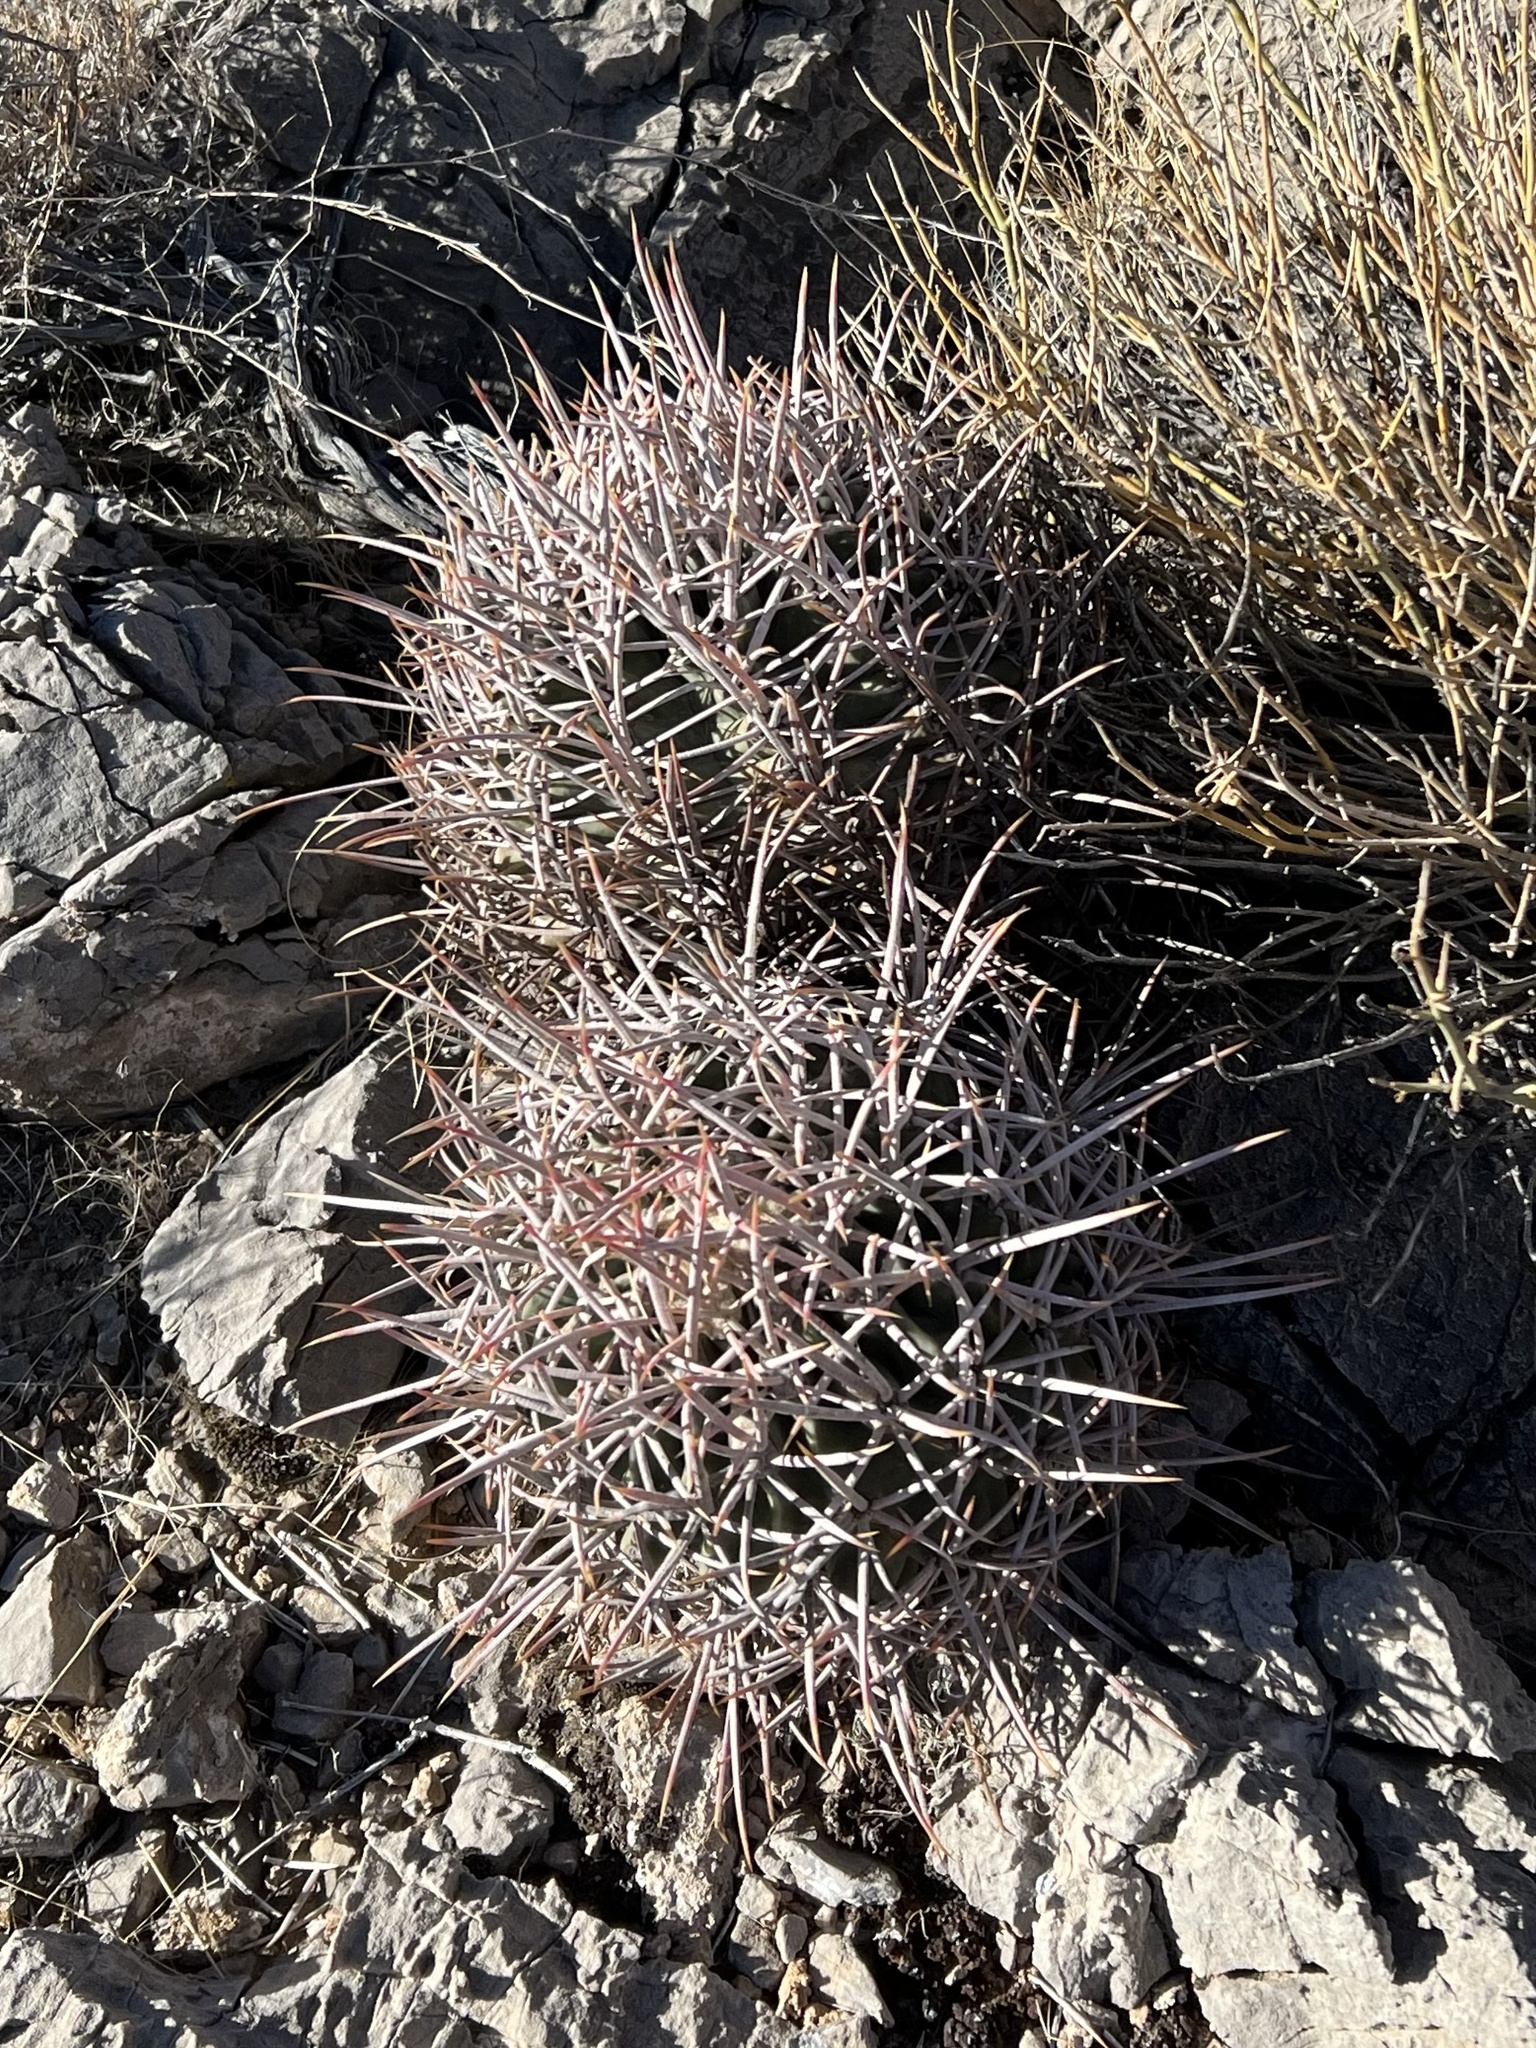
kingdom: Plantae
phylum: Tracheophyta
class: Magnoliopsida
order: Caryophyllales
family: Cactaceae
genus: Echinocactus
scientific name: Echinocactus polycephalus
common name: Cottontop cactus
